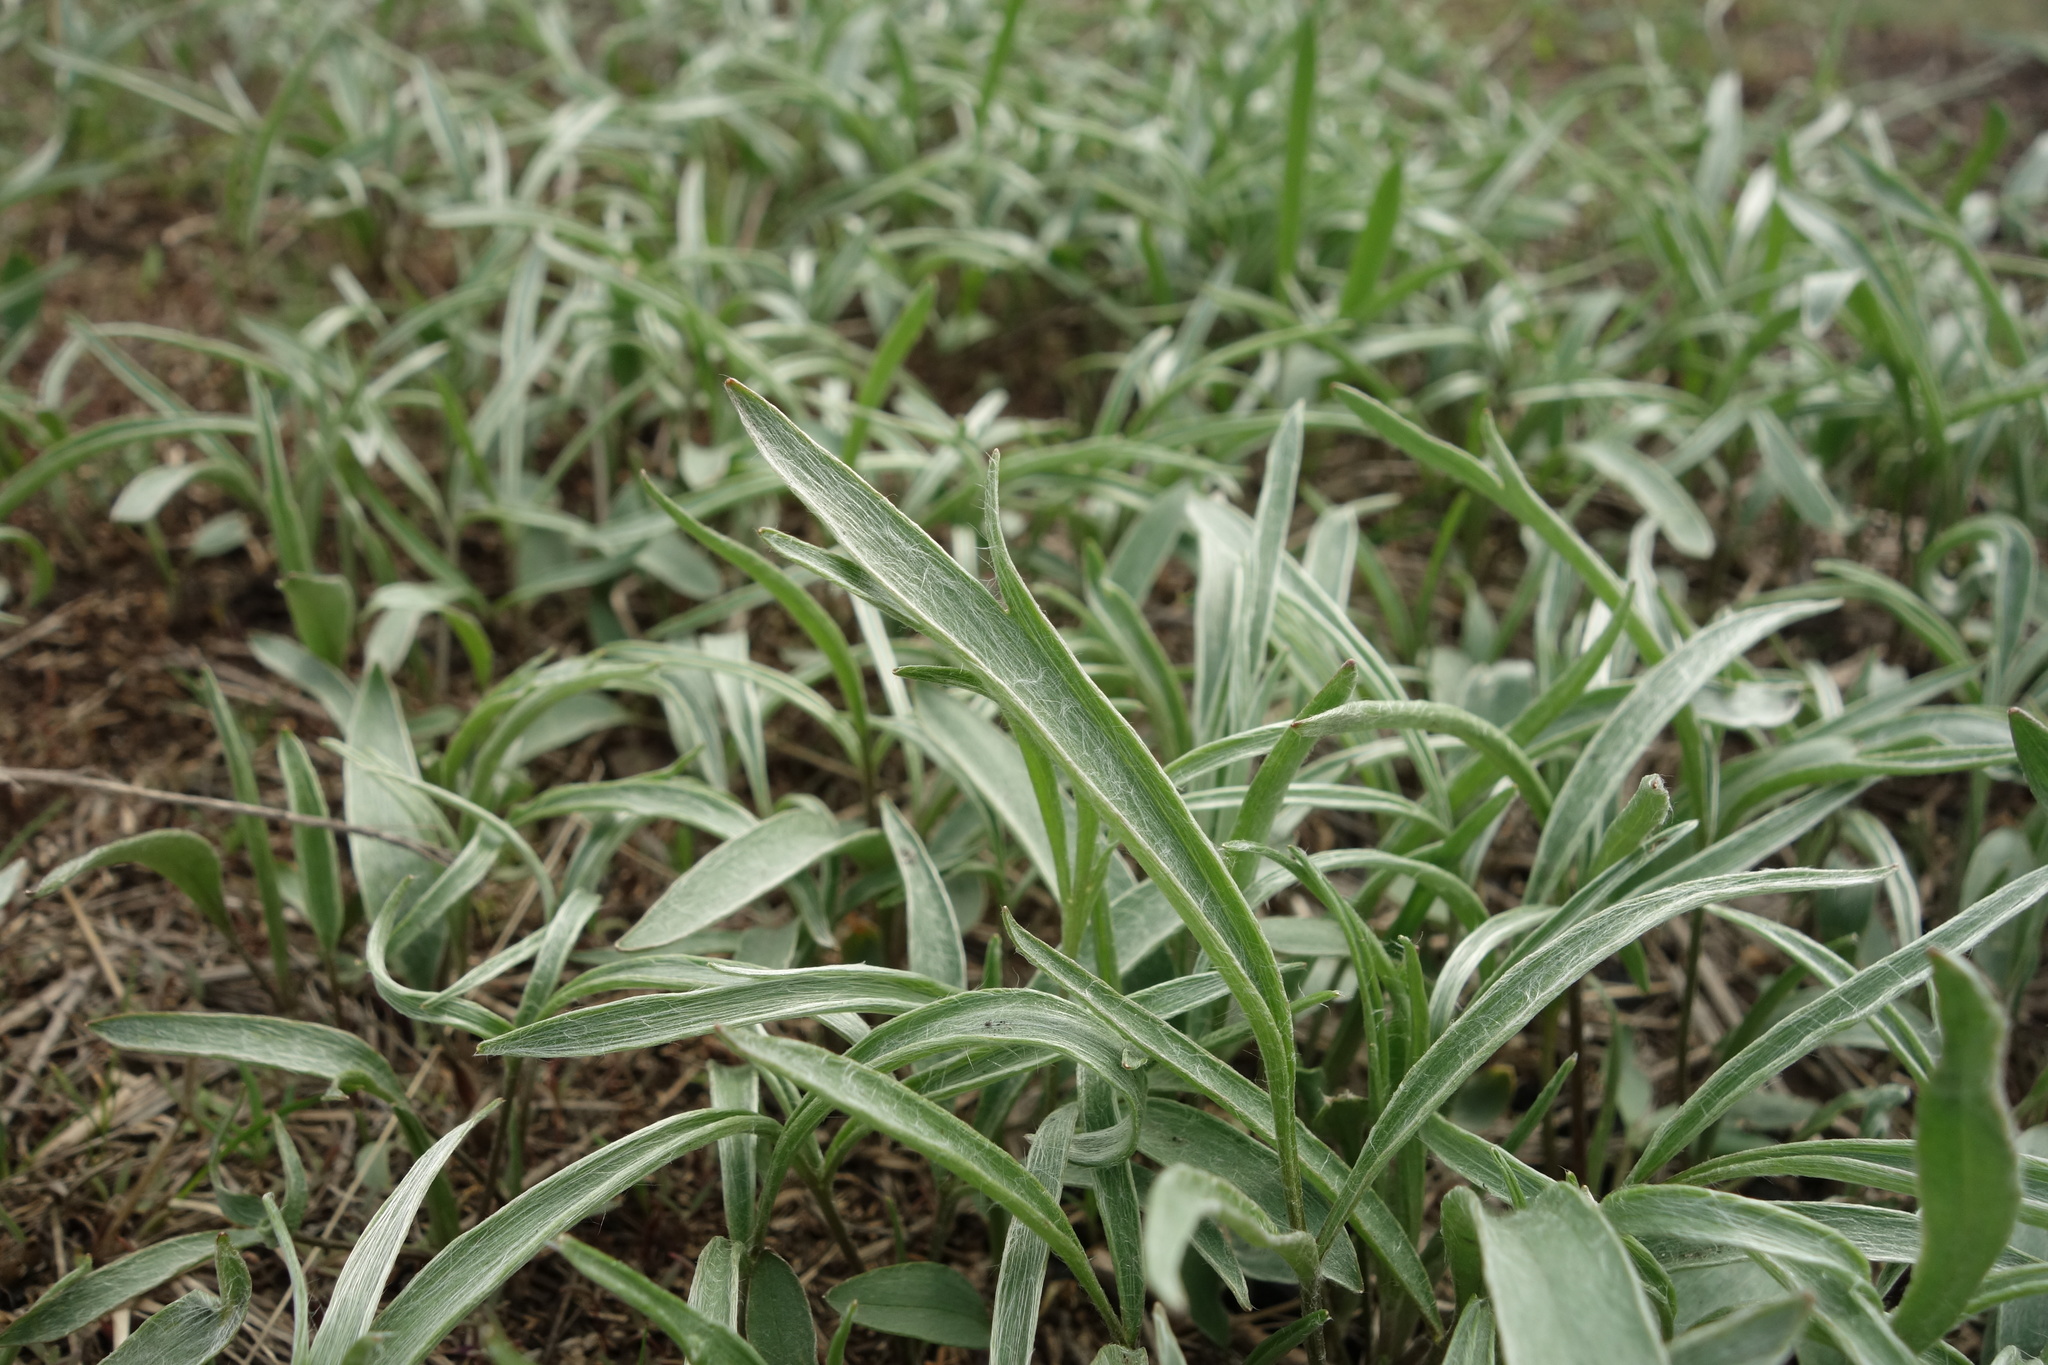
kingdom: Plantae
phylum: Tracheophyta
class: Magnoliopsida
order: Ranunculales
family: Ranunculaceae
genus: Ranunculus
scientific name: Ranunculus illyricus
